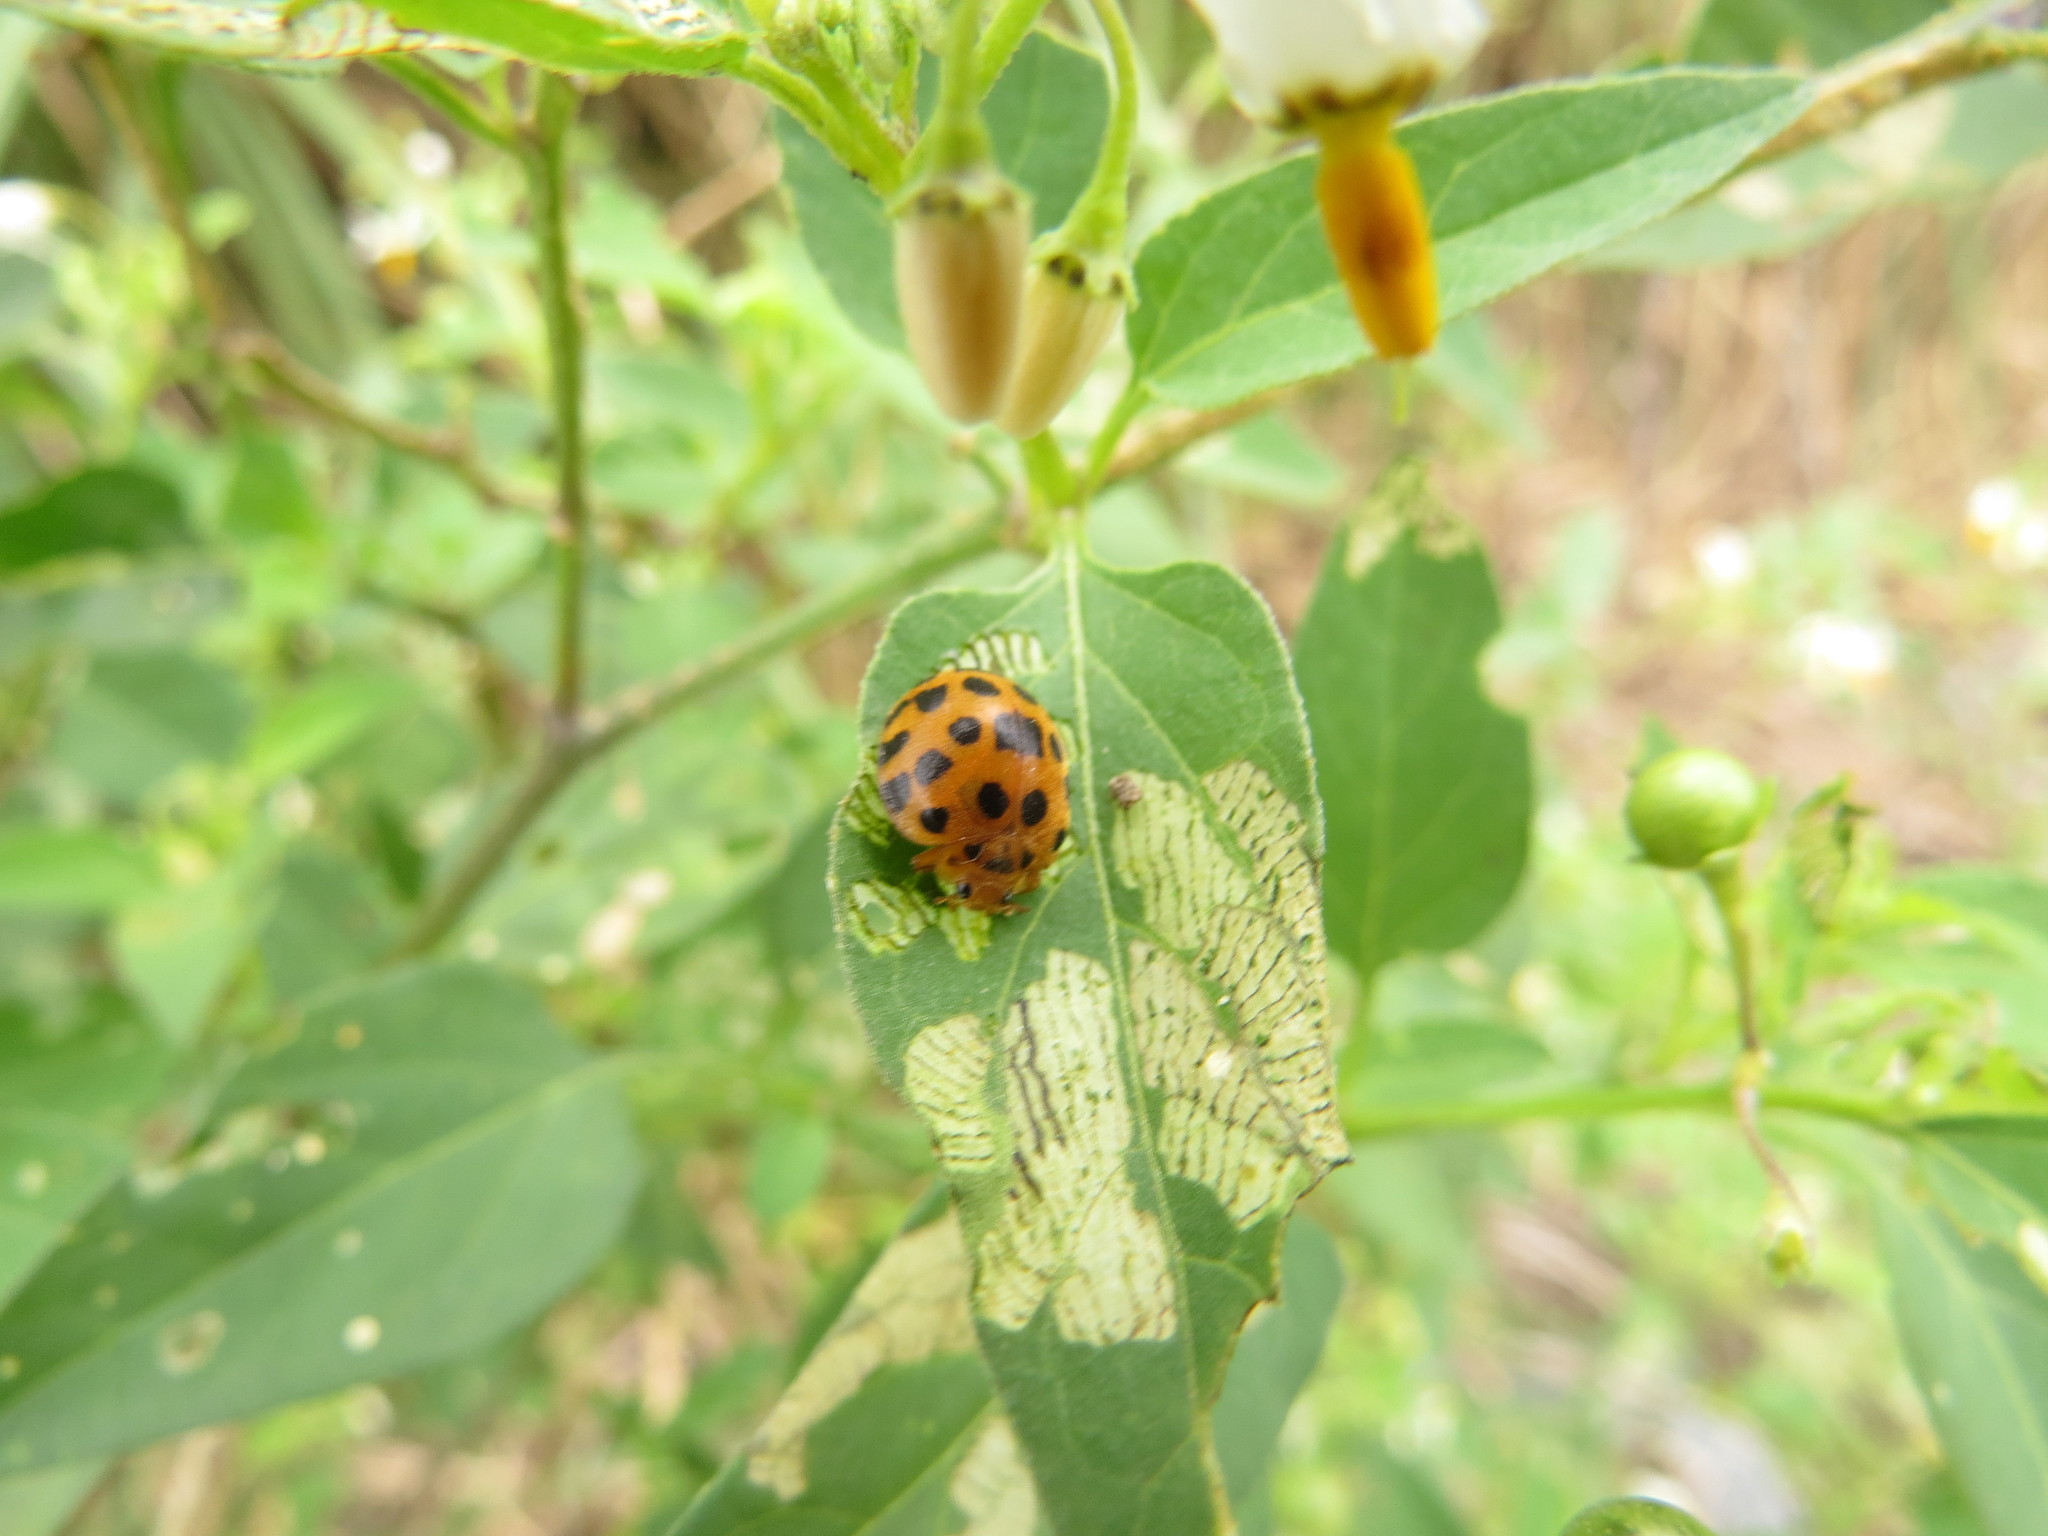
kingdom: Animalia
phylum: Arthropoda
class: Insecta
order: Coleoptera
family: Coccinellidae
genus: Henosepilachna
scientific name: Henosepilachna vigintioctopunctata
